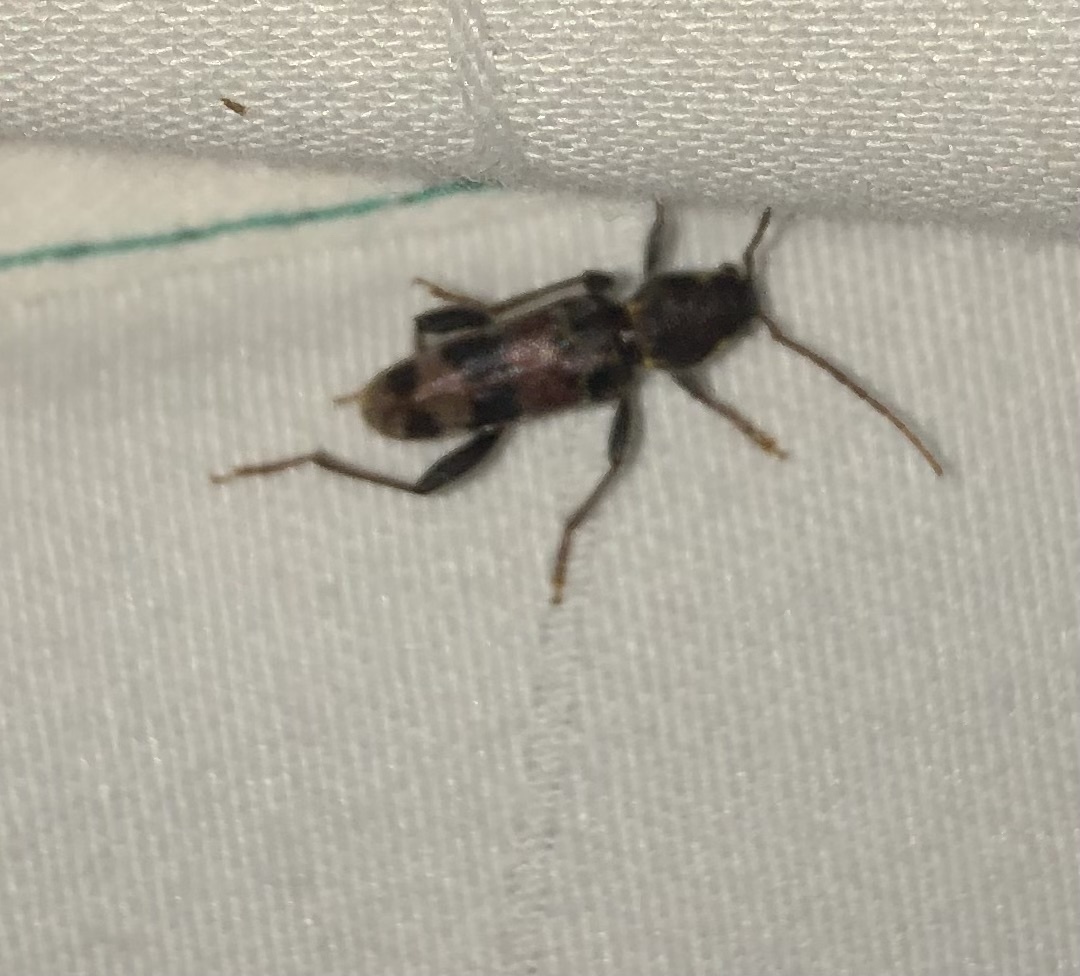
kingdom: Animalia
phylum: Arthropoda
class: Insecta
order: Coleoptera
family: Cerambycidae
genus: Xylotrechus
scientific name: Xylotrechus colonus
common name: Long-horned beetle
